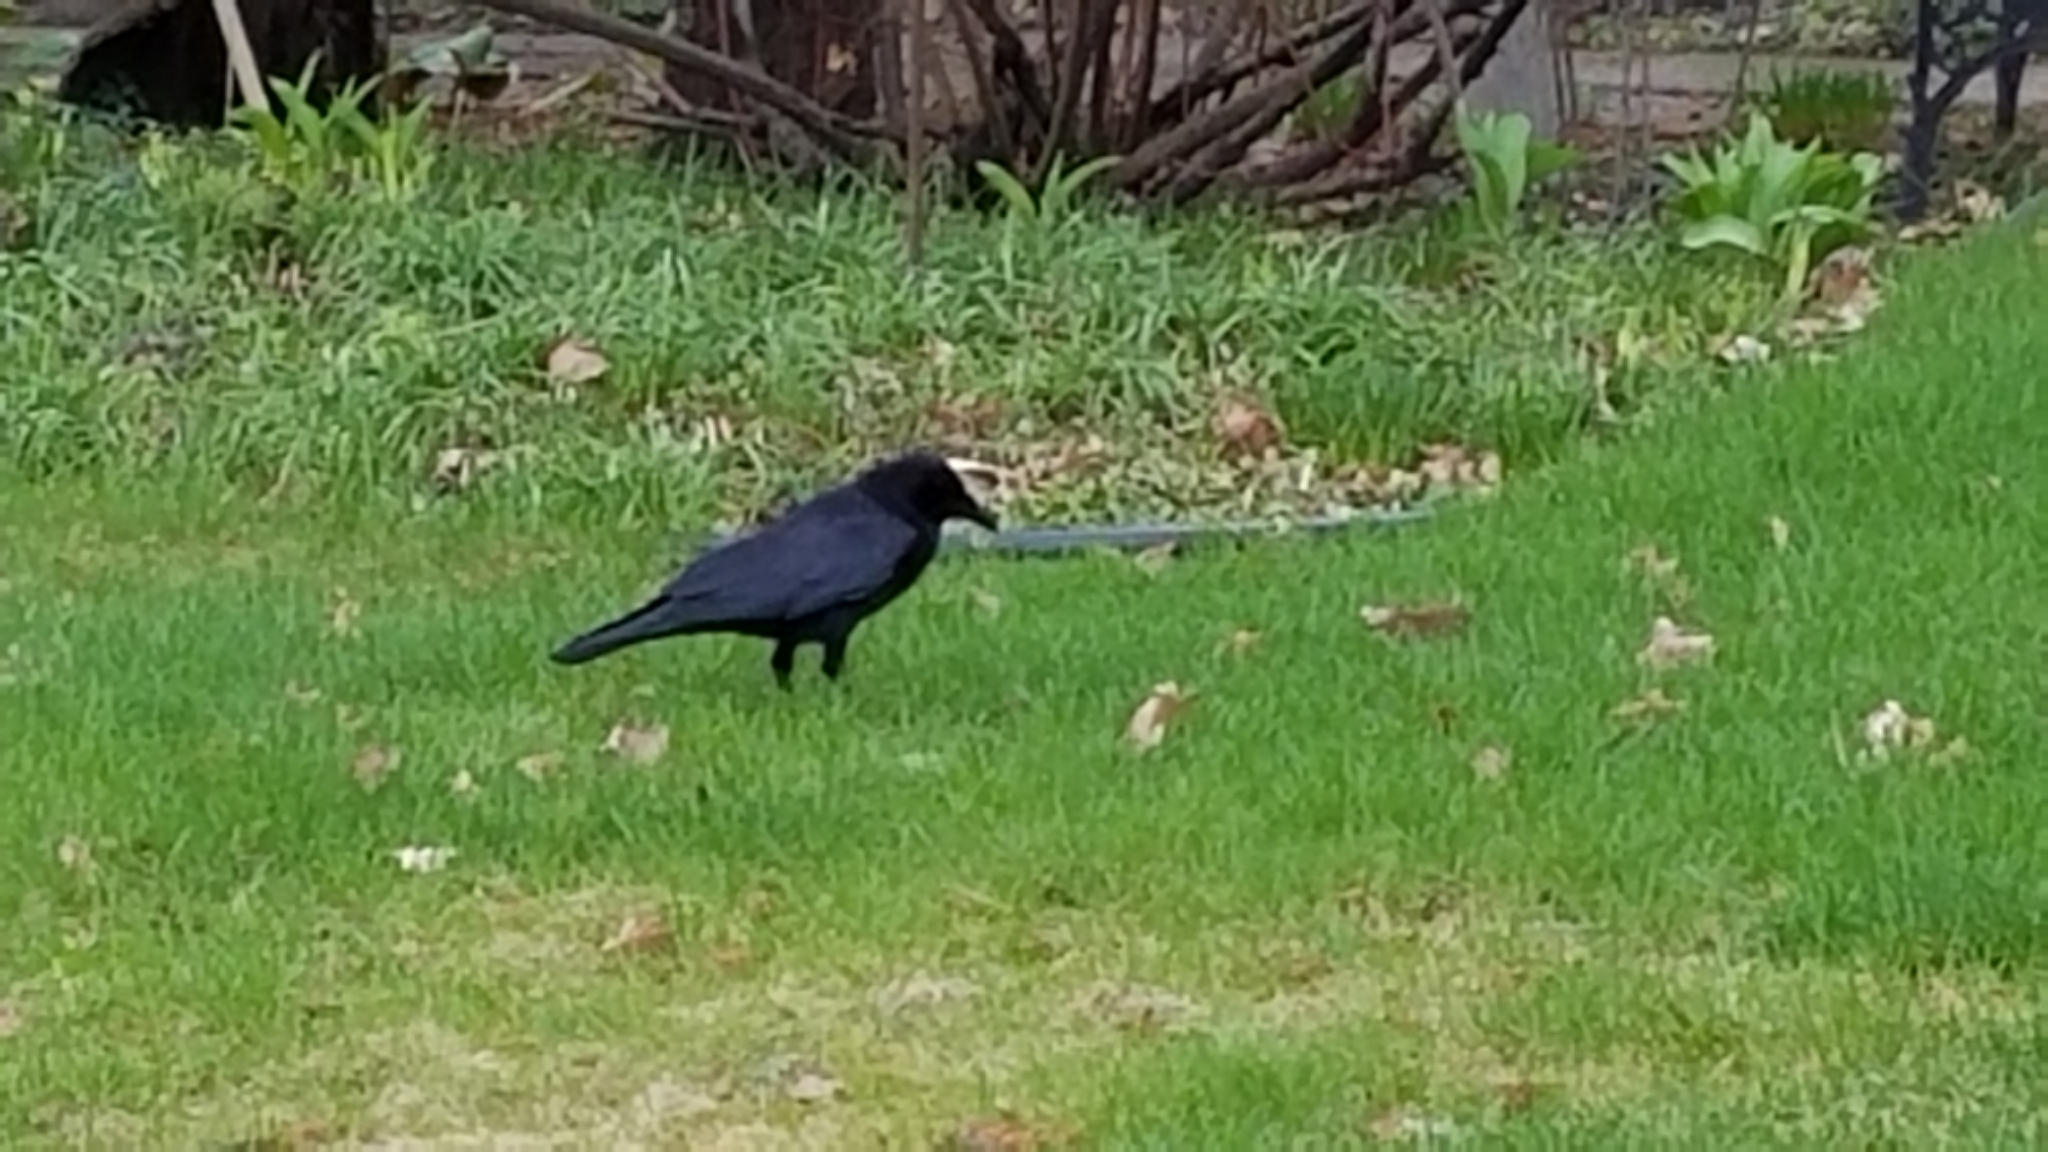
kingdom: Animalia
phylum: Chordata
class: Aves
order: Passeriformes
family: Corvidae
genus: Corvus
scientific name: Corvus brachyrhynchos
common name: American crow
